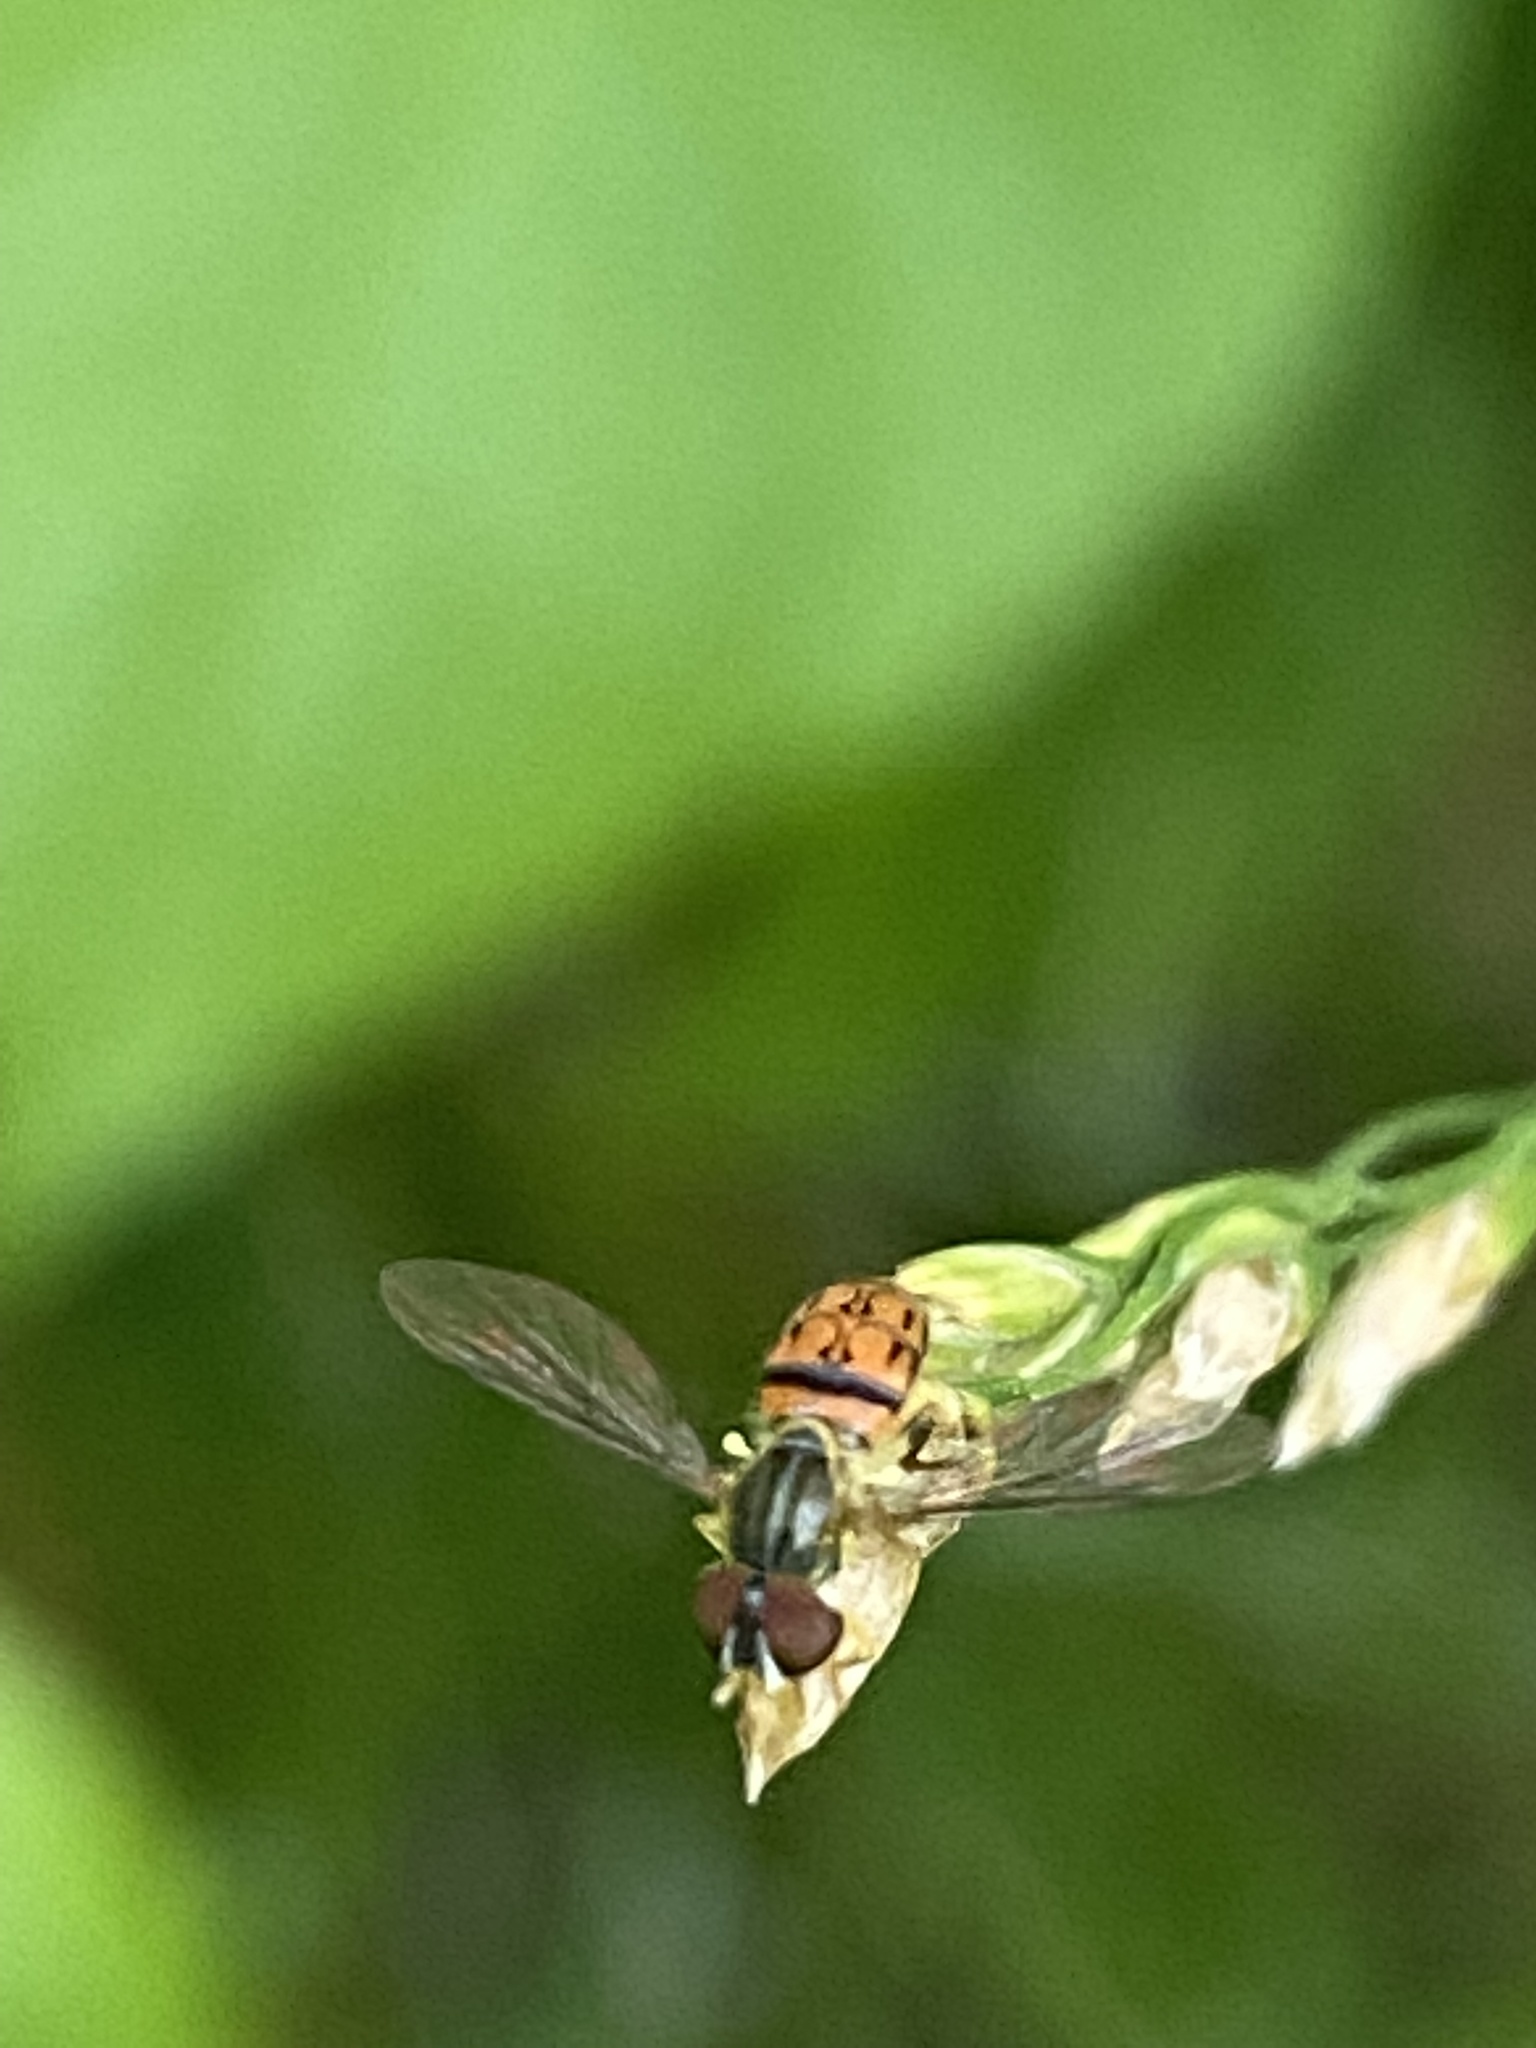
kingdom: Animalia
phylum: Arthropoda
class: Insecta
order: Diptera
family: Syrphidae
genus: Toxomerus
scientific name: Toxomerus boscii
